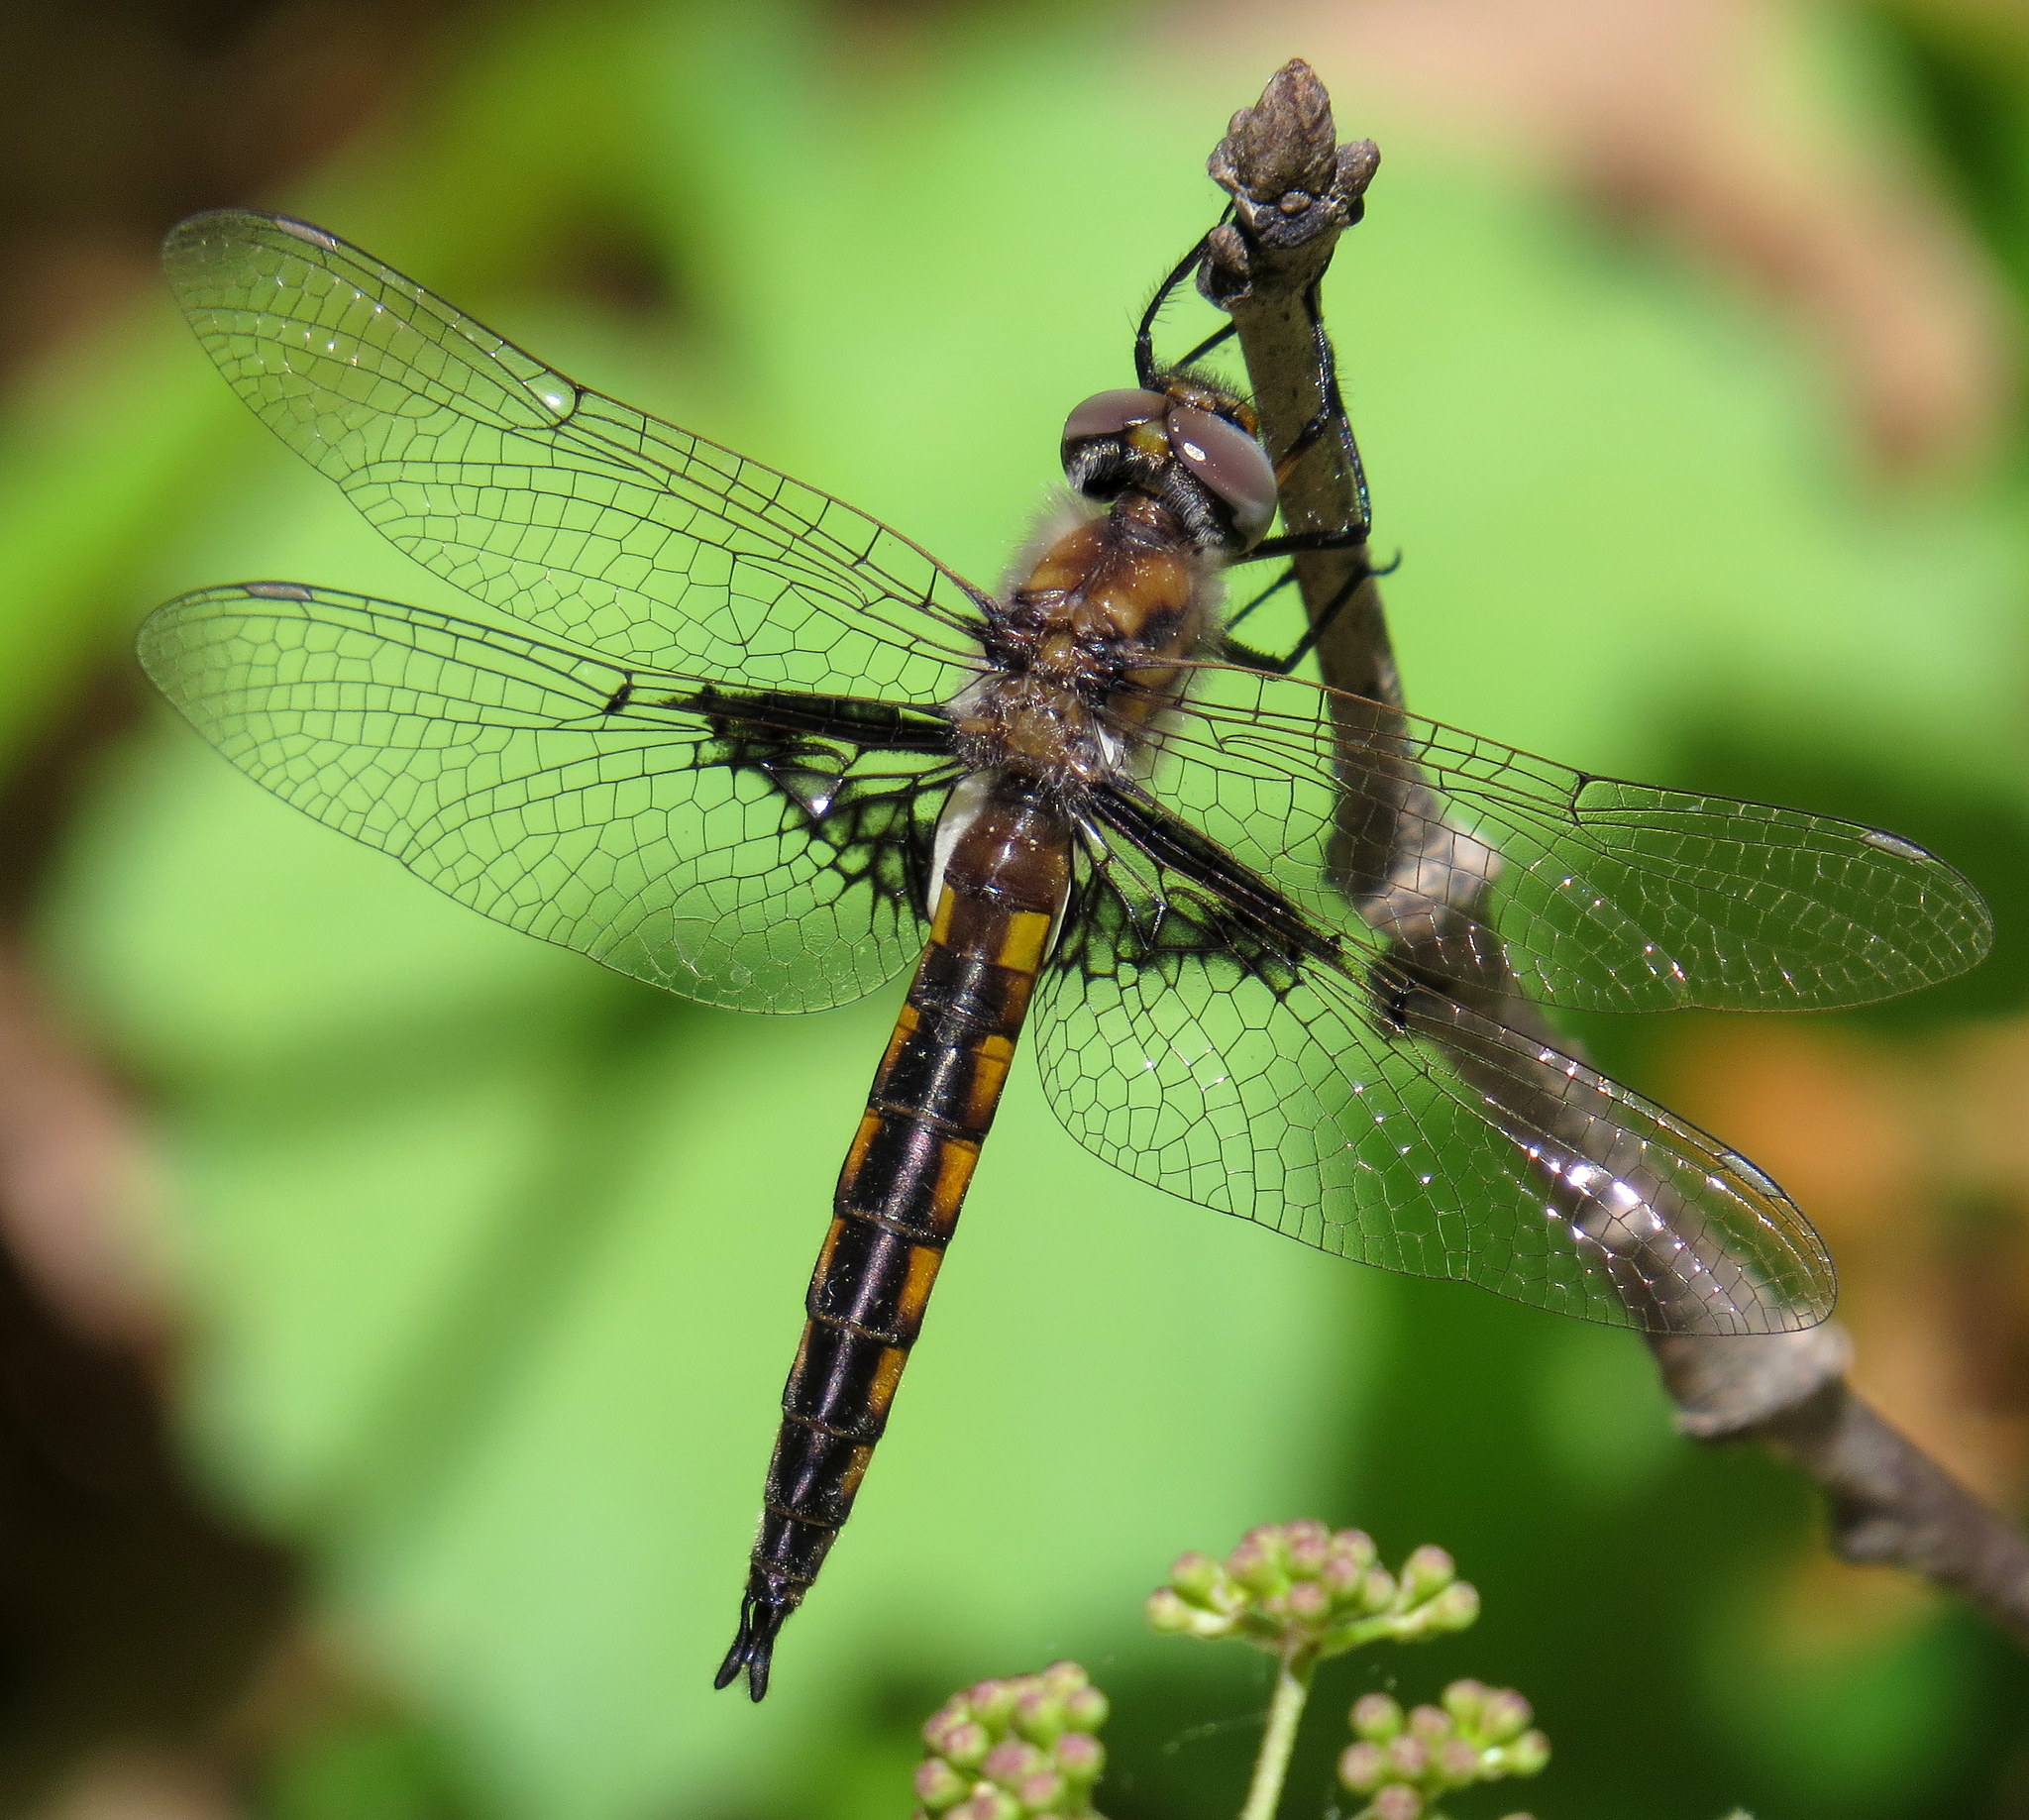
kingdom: Animalia
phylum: Arthropoda
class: Insecta
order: Odonata
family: Corduliidae
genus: Epitheca
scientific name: Epitheca semiaquea
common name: Mantled baskettail
